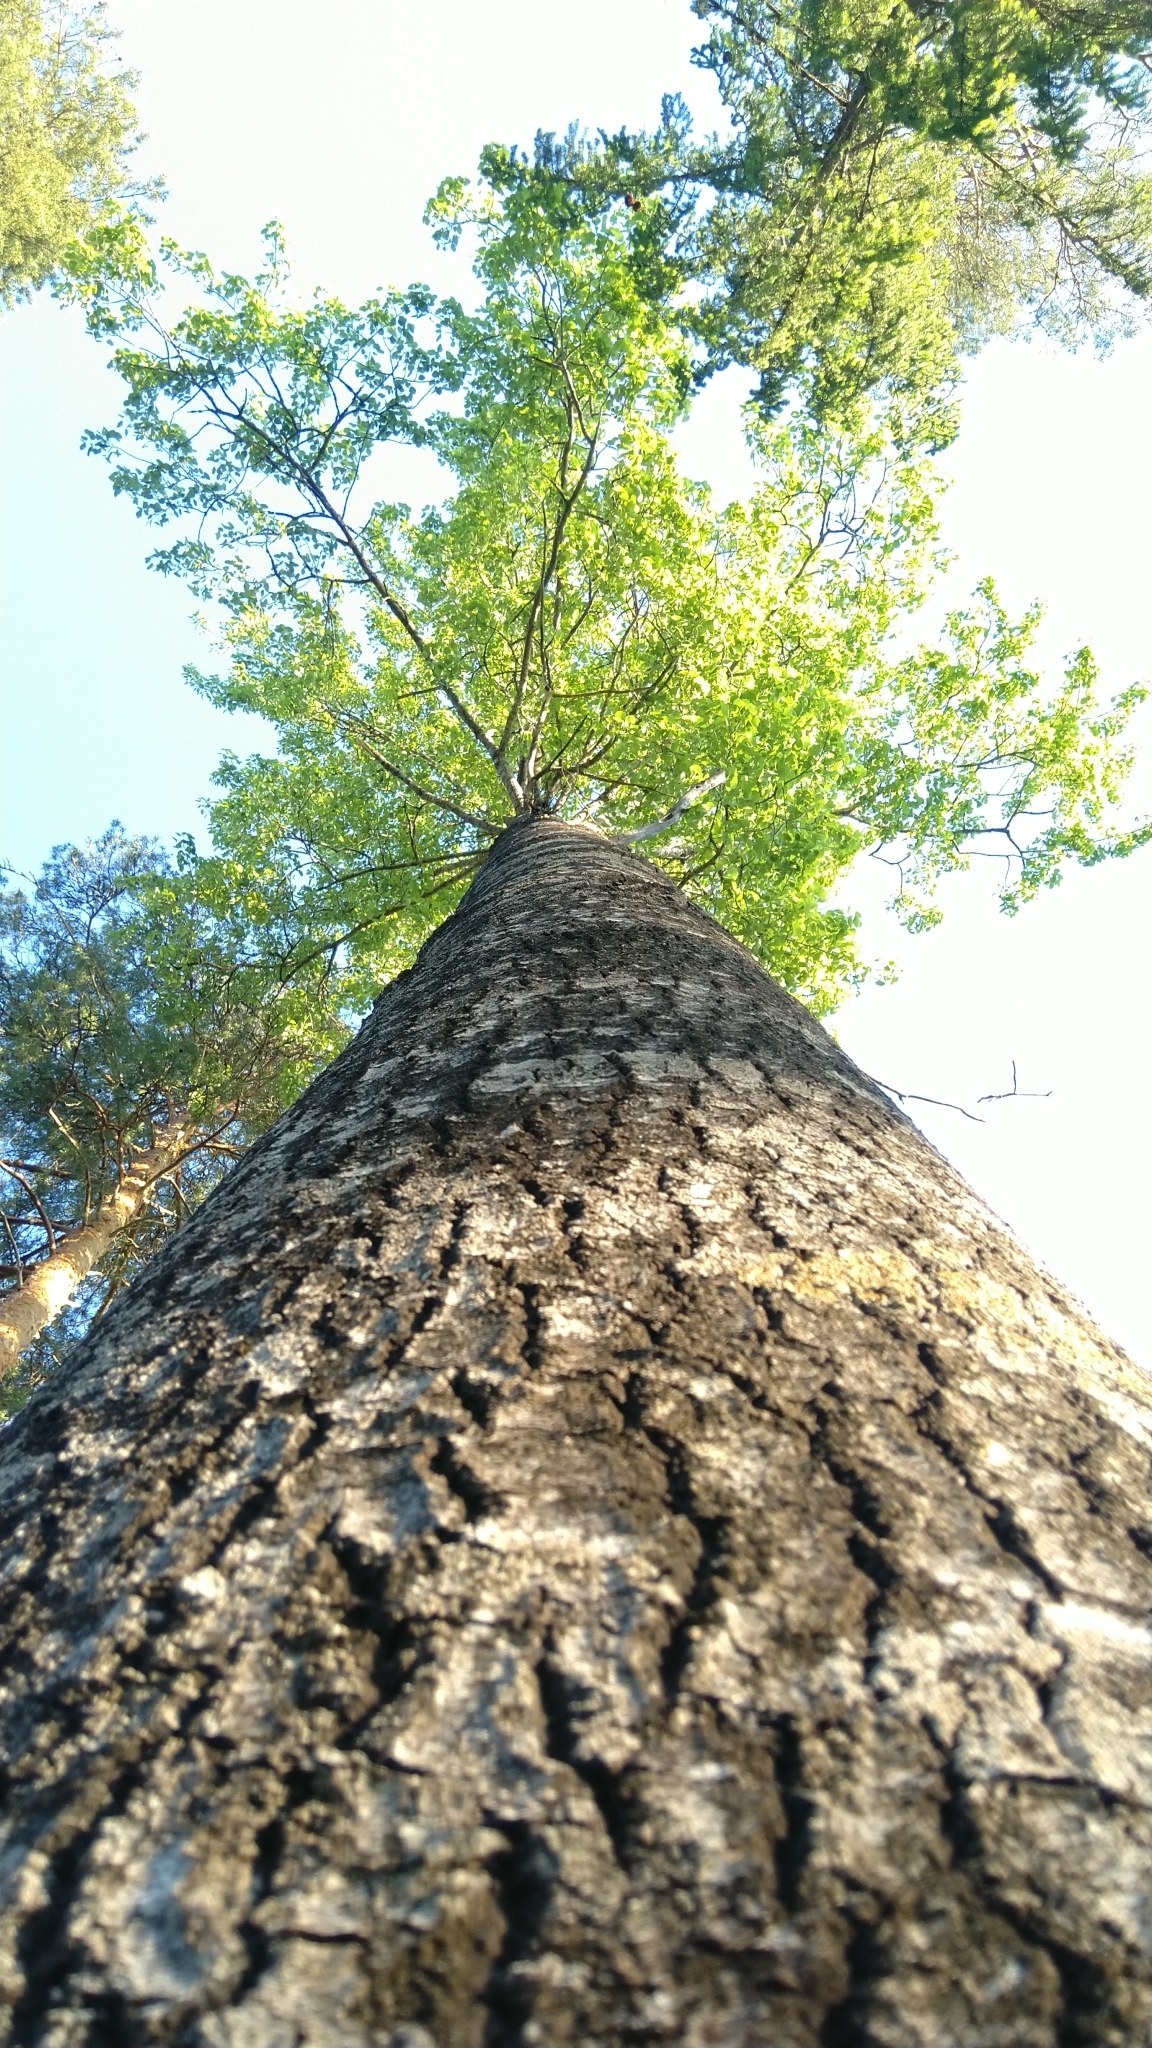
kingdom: Plantae
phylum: Tracheophyta
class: Magnoliopsida
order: Malpighiales
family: Salicaceae
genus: Populus
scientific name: Populus tremula
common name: European aspen
